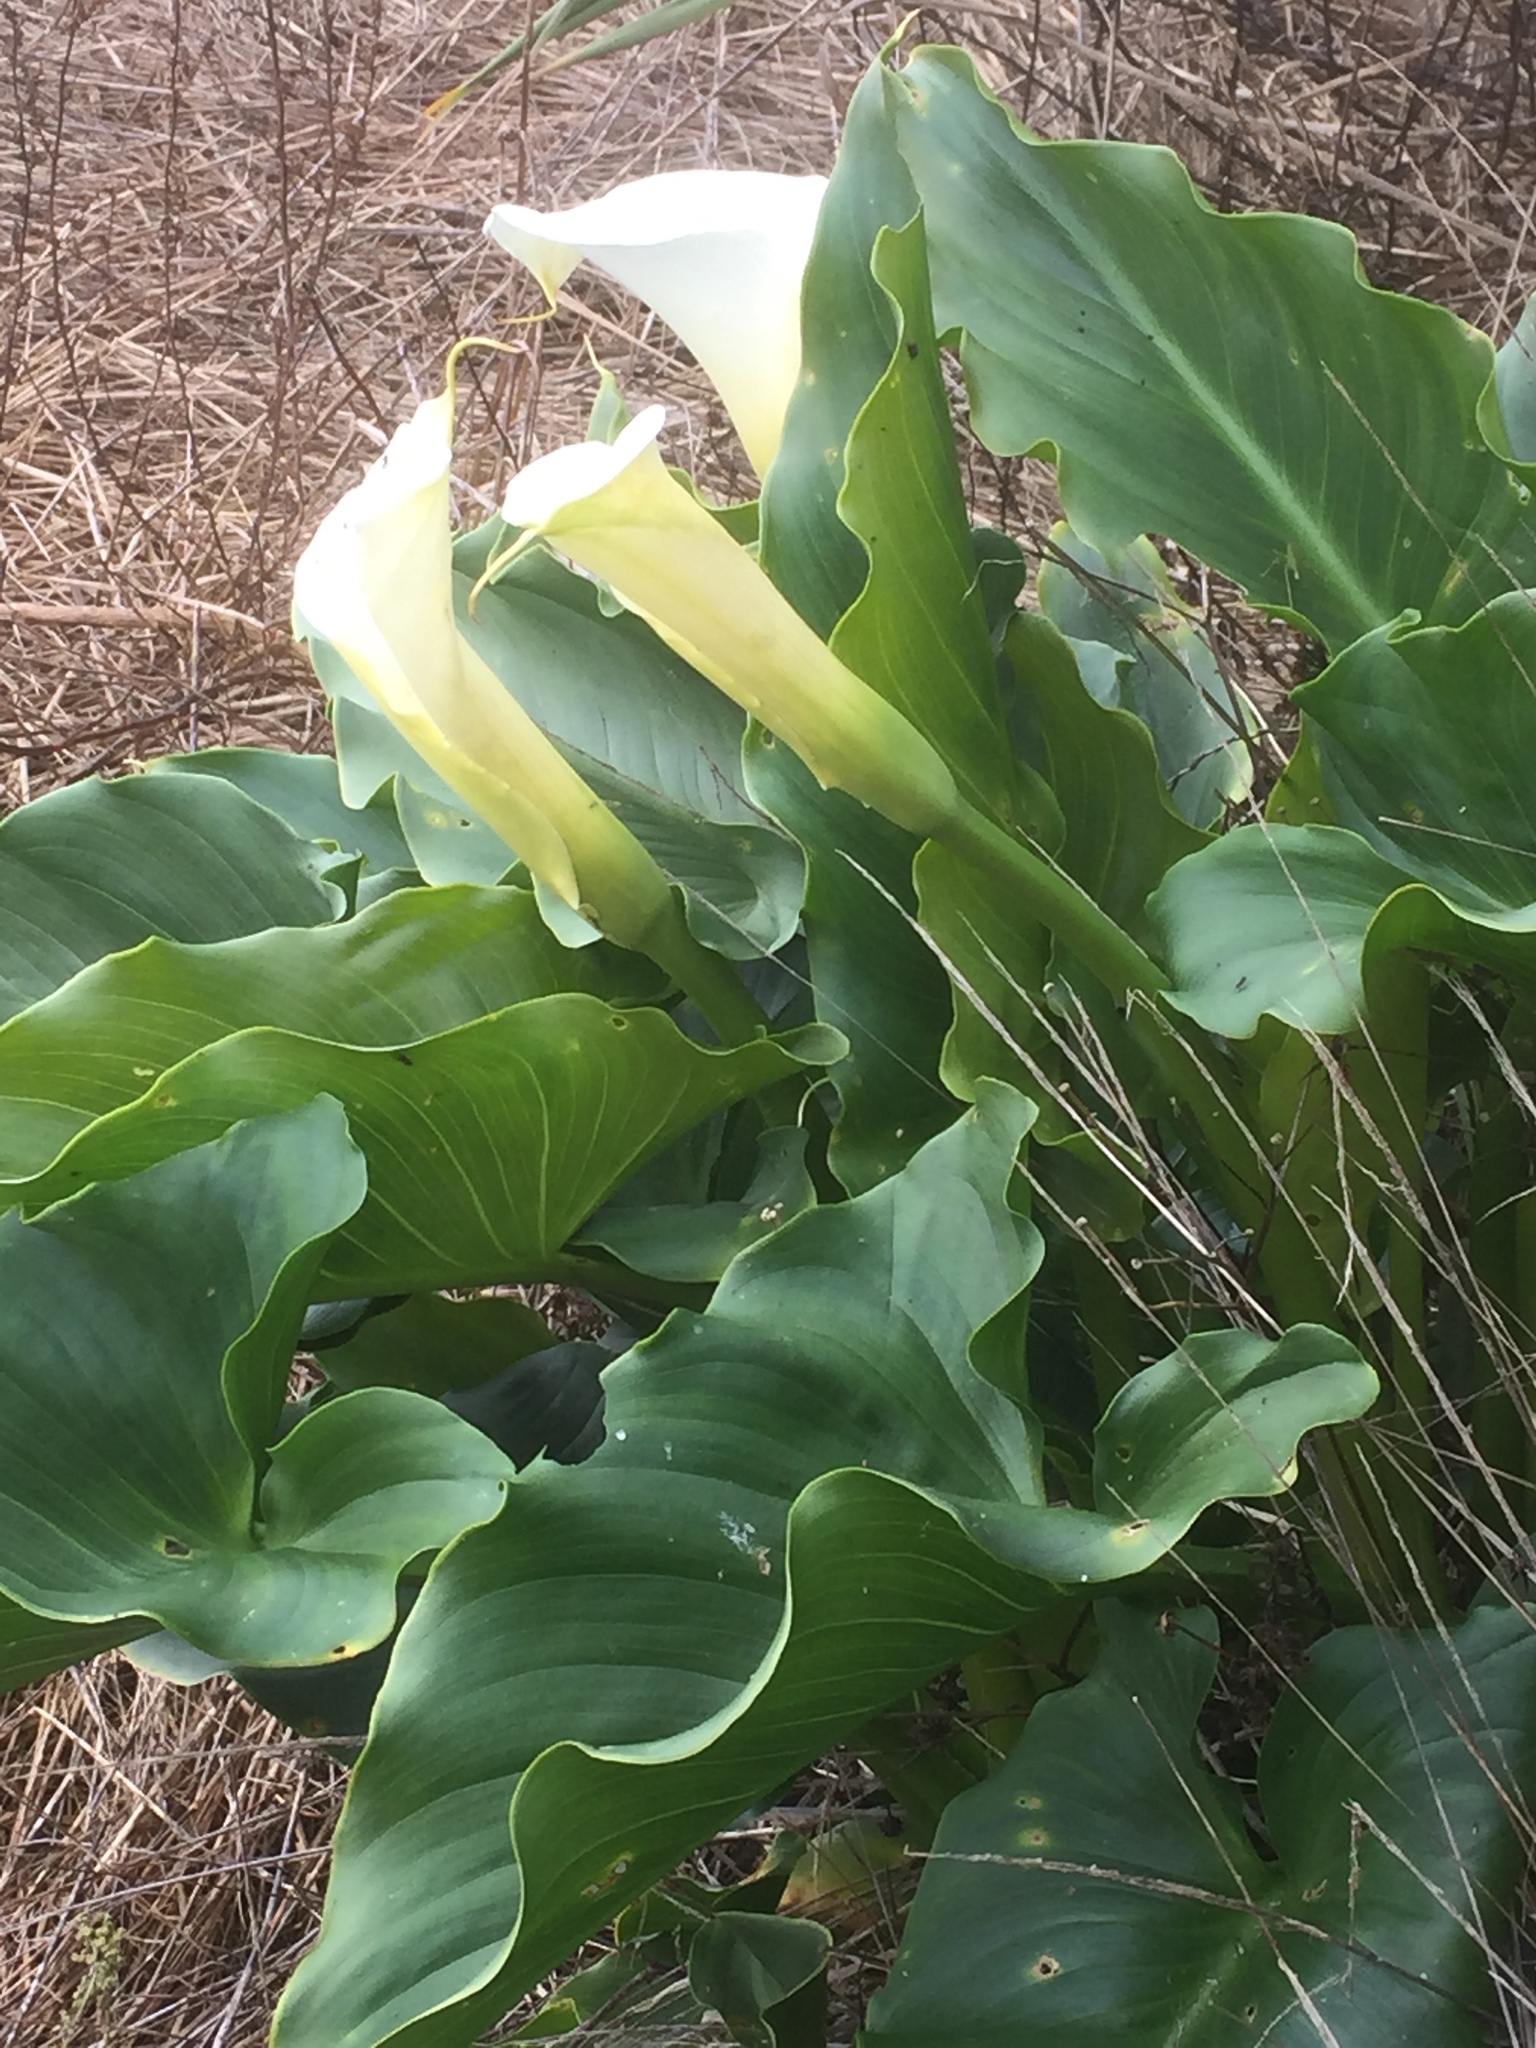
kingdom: Plantae
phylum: Tracheophyta
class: Liliopsida
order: Alismatales
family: Araceae
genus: Zantedeschia
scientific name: Zantedeschia aethiopica
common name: Altar-lily
